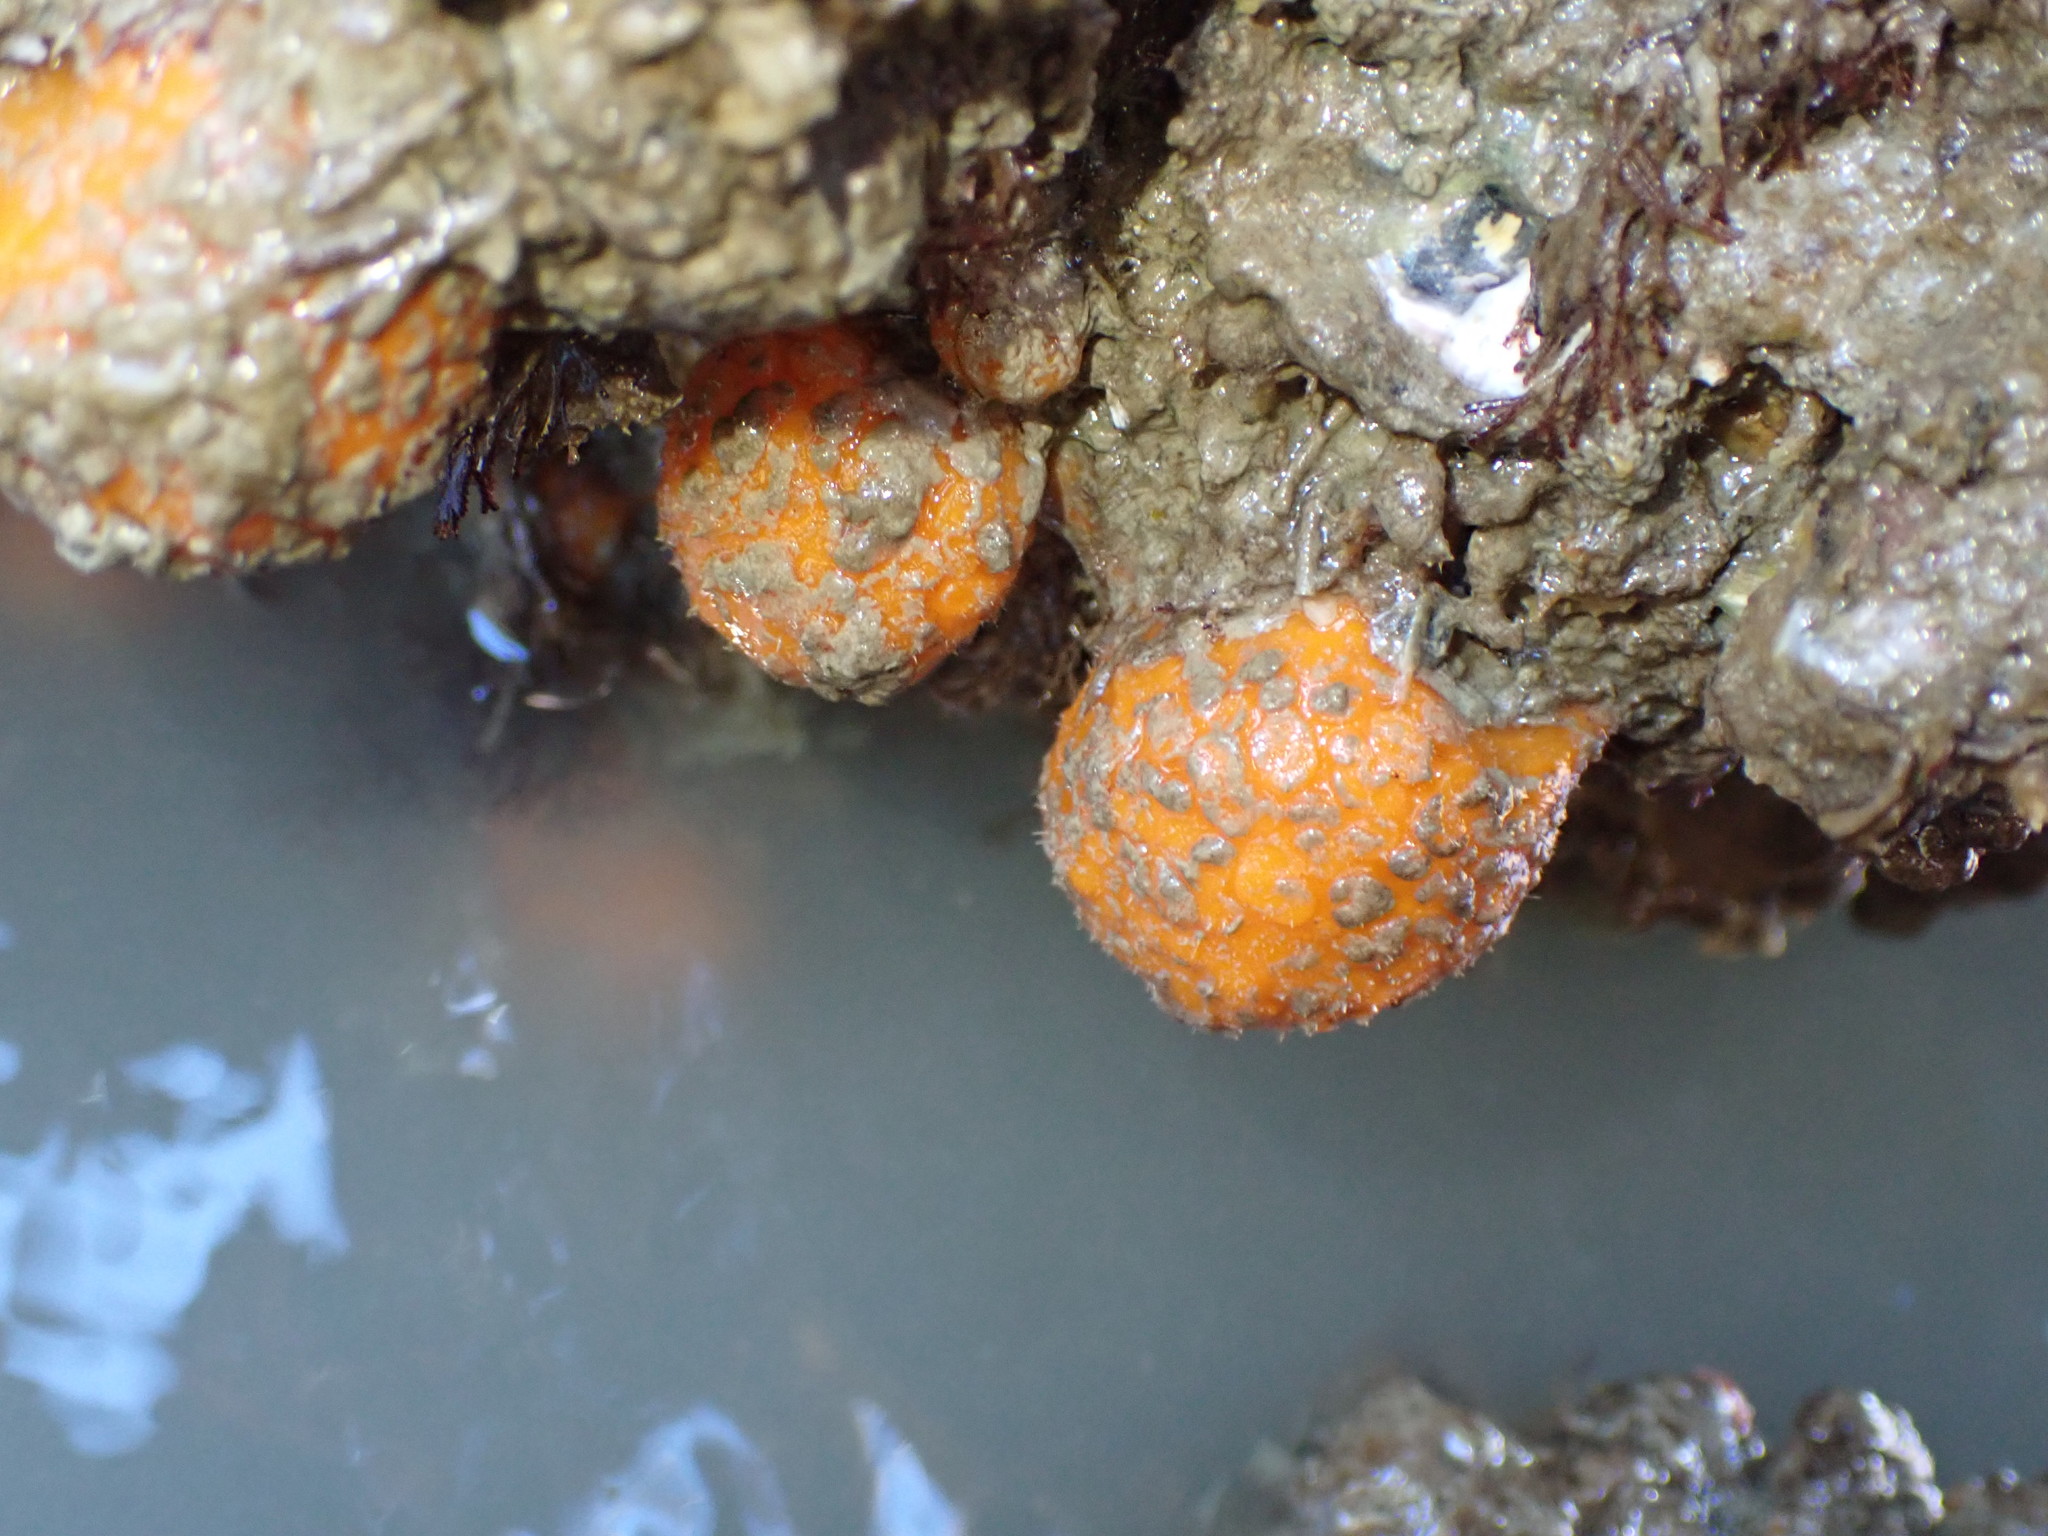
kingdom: Animalia
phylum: Porifera
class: Demospongiae
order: Tethyida
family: Tethyidae
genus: Tethya
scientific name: Tethya burtoni
